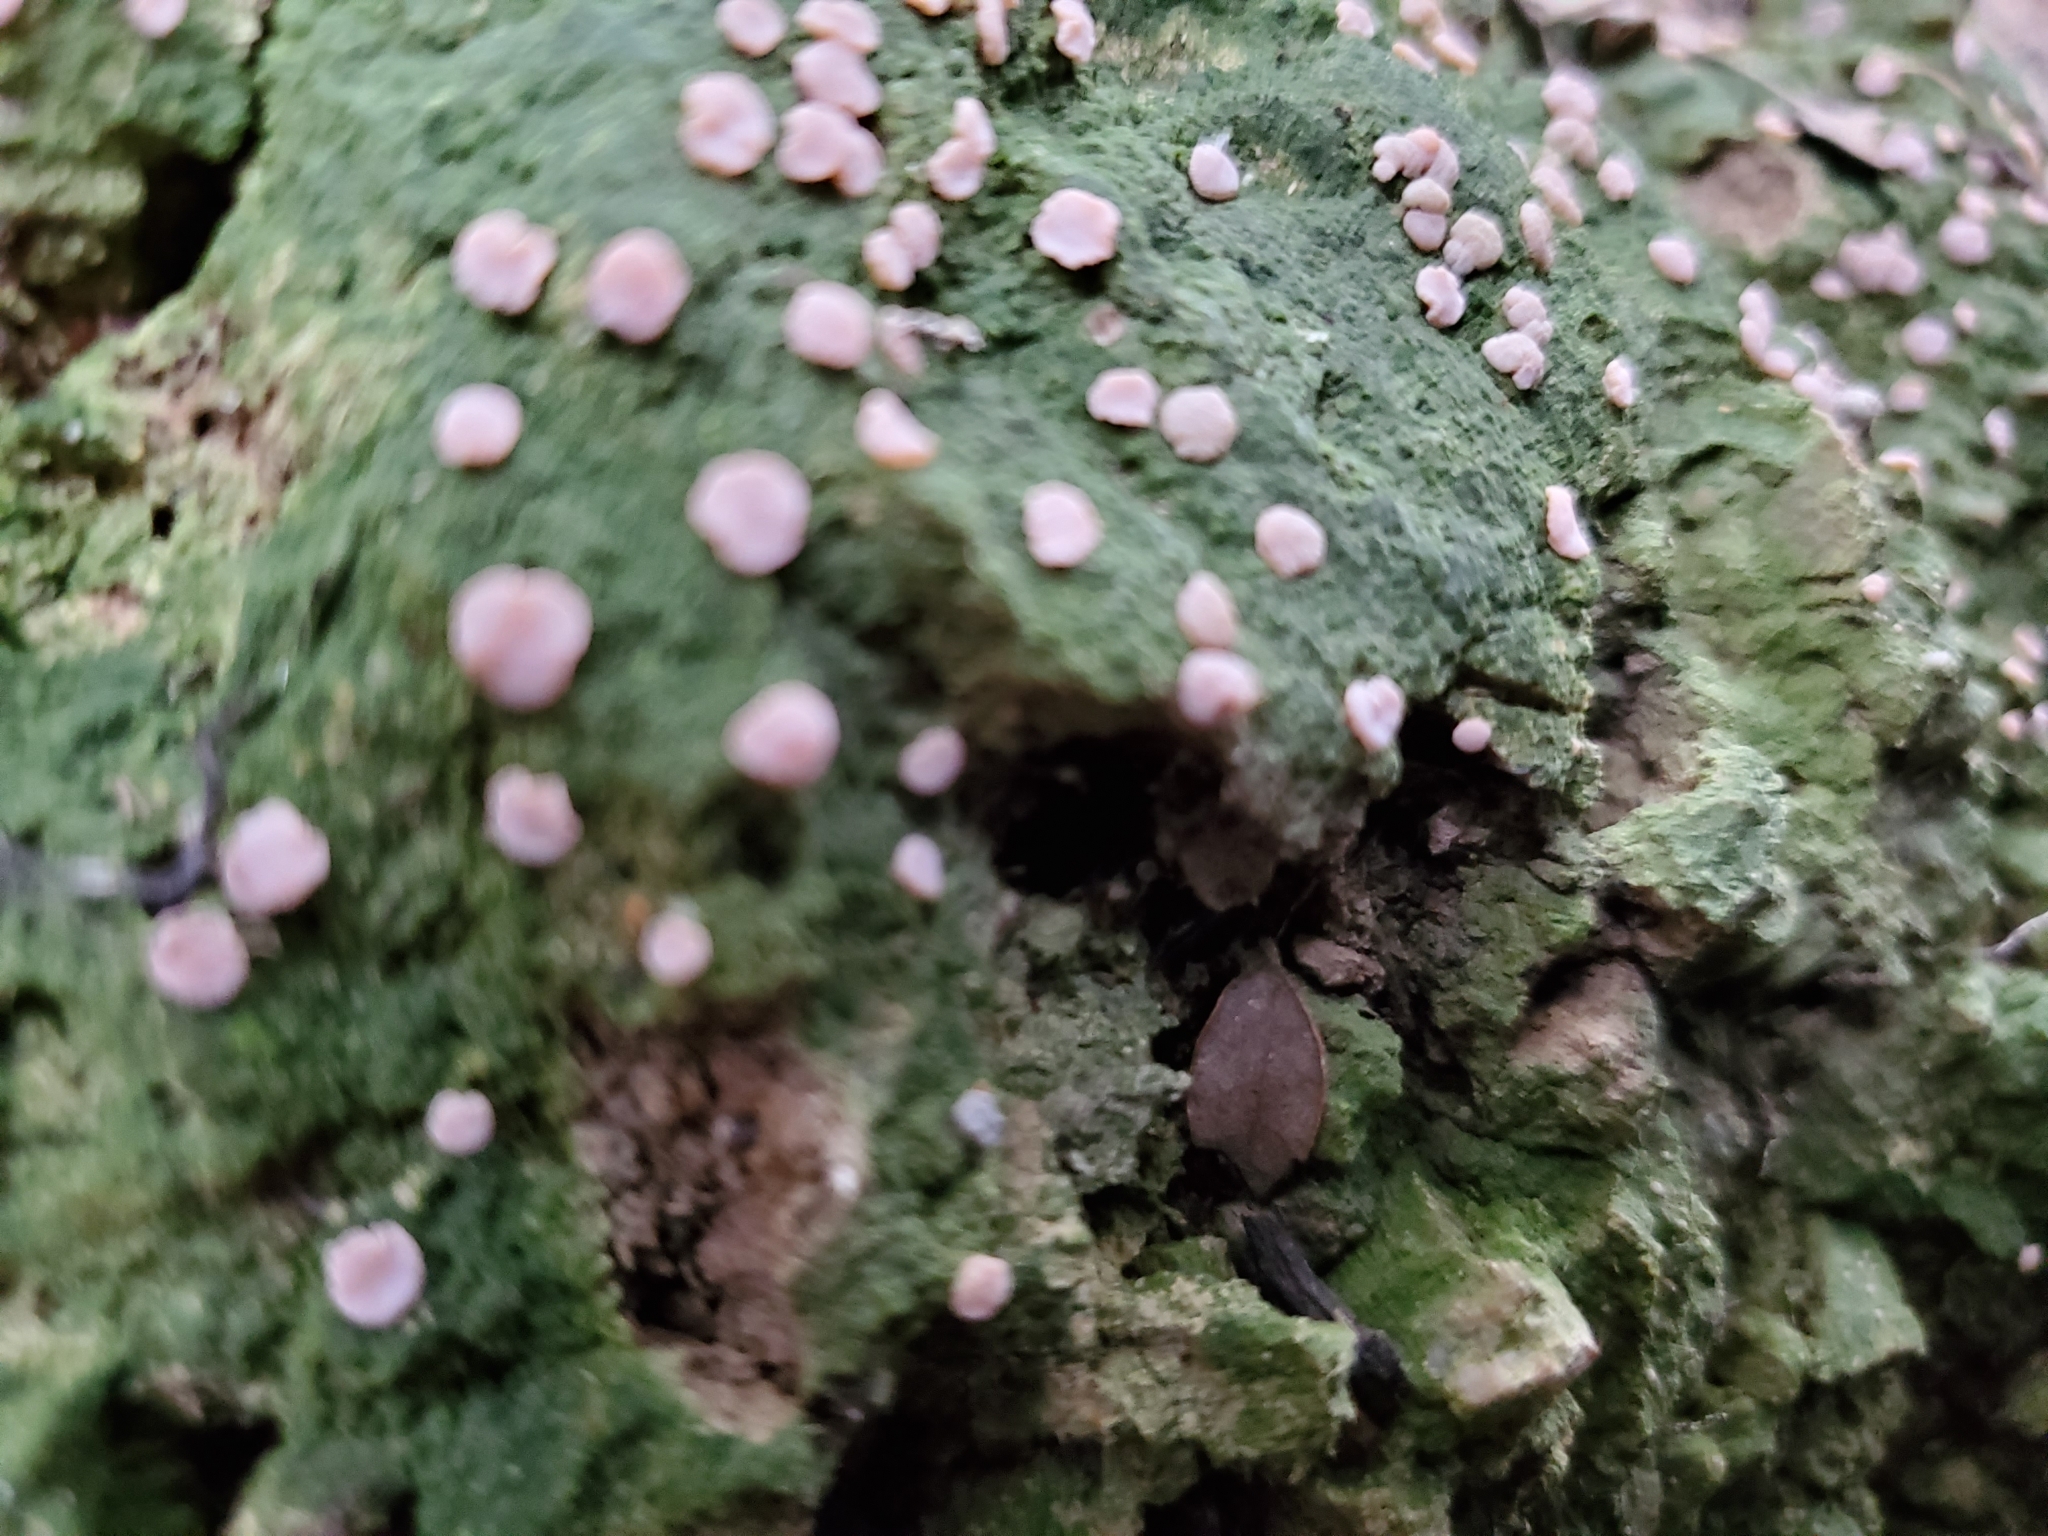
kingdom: Fungi
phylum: Ascomycota
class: Lecanoromycetes
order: Pertusariales
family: Icmadophilaceae
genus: Dibaeis
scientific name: Dibaeis absoluta
